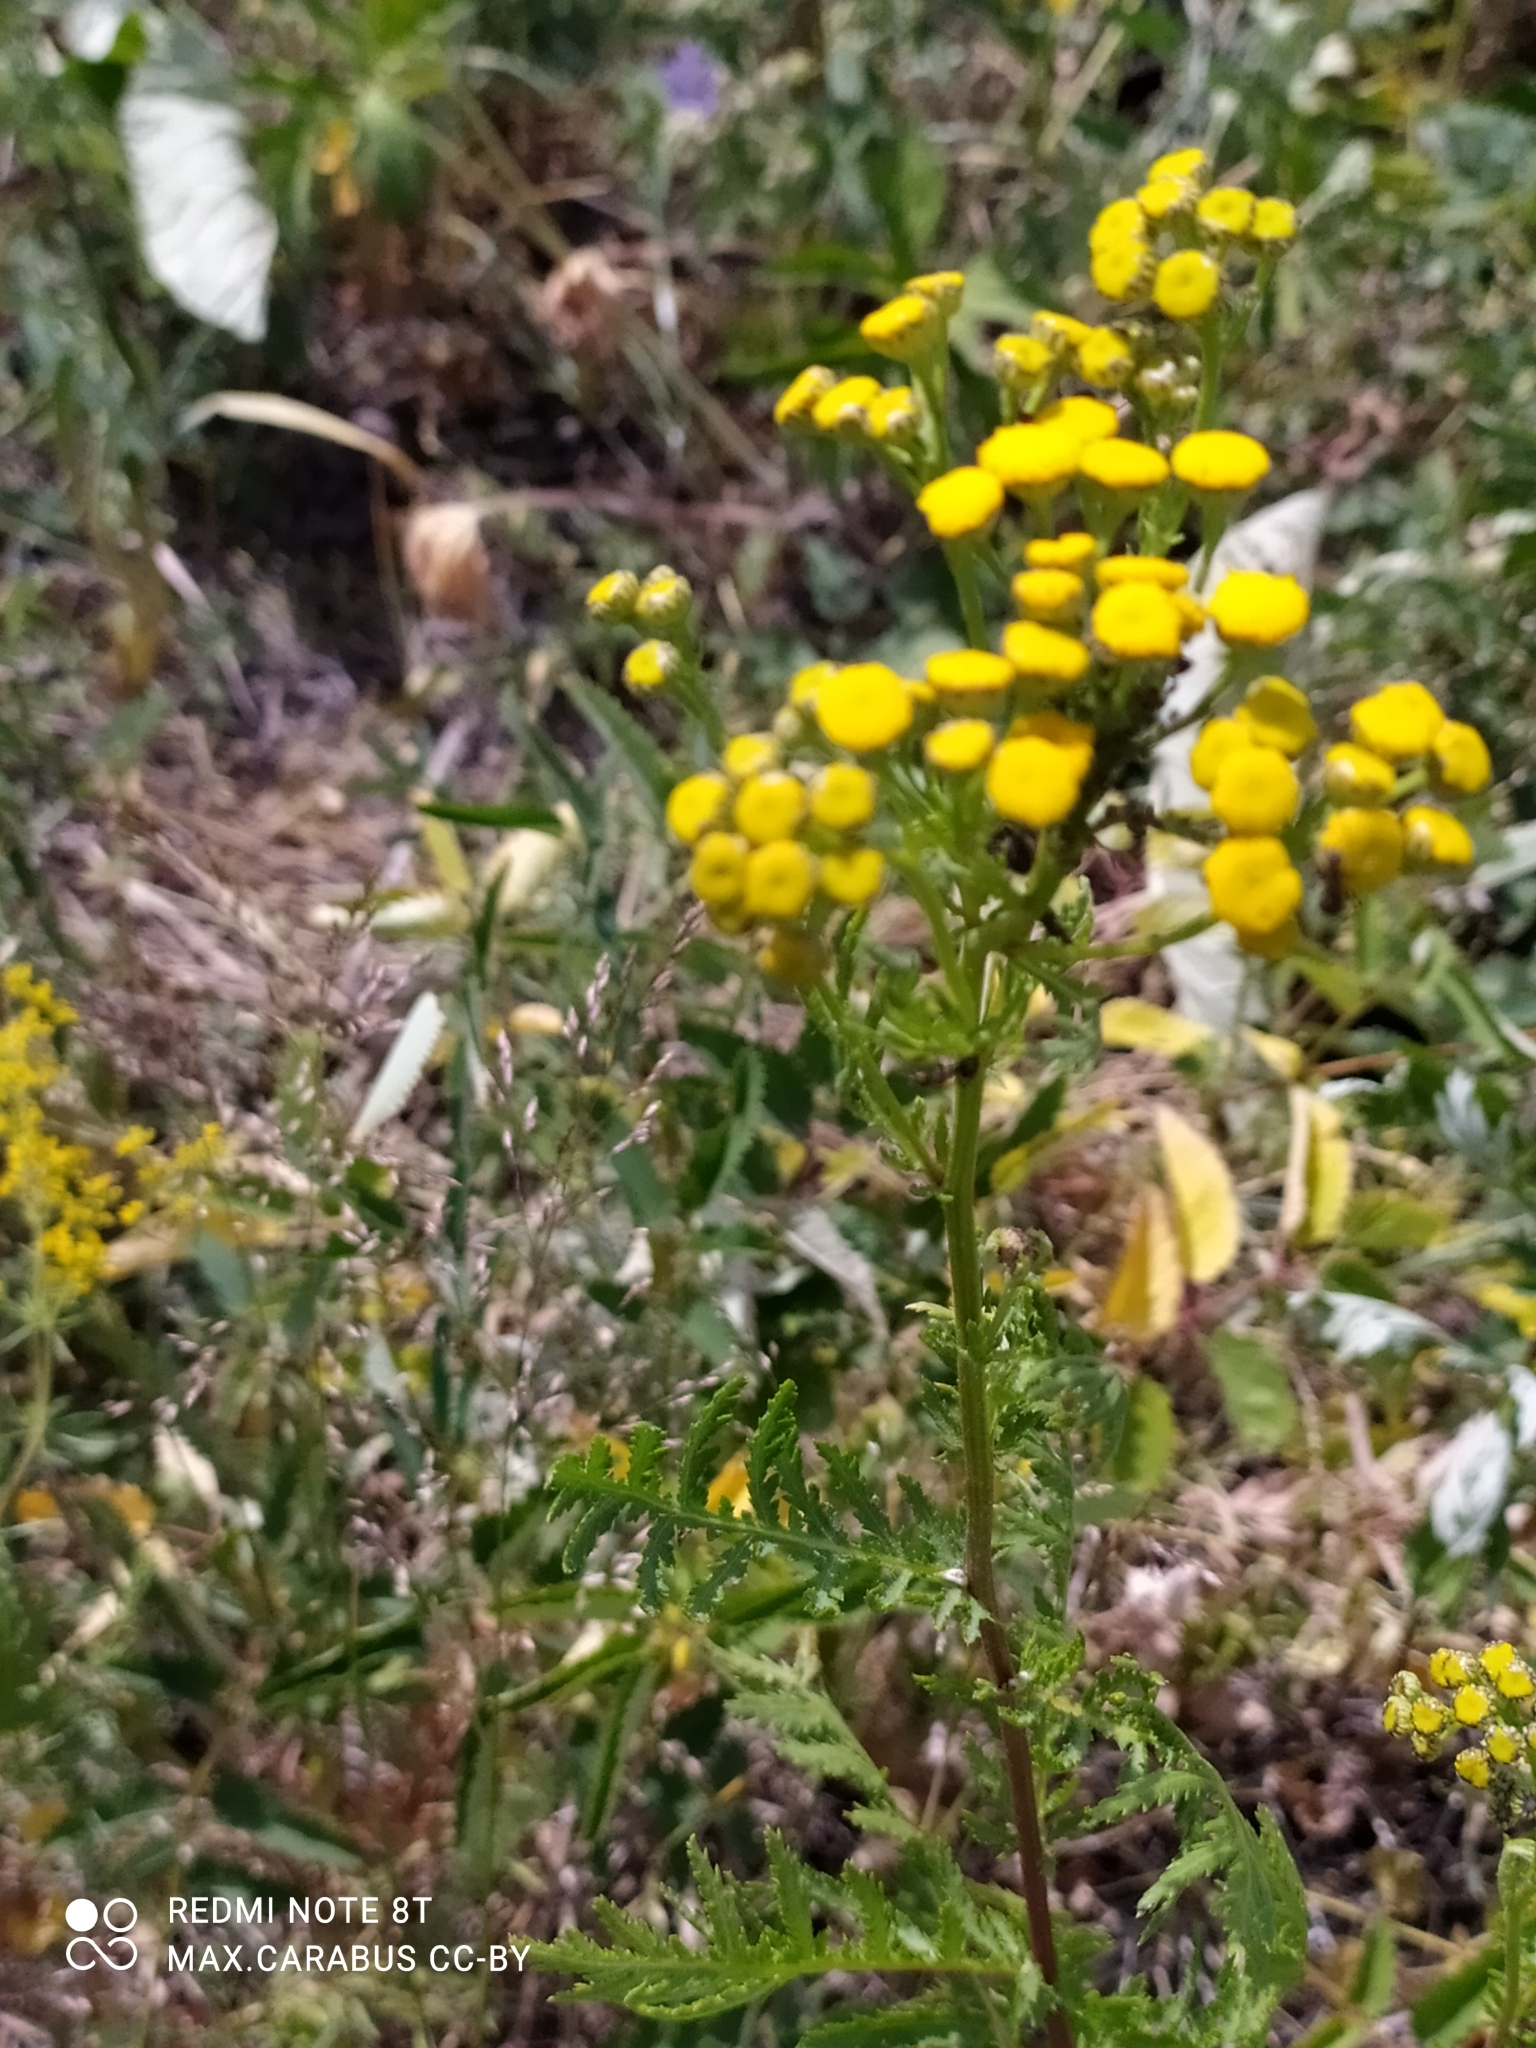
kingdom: Plantae
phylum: Tracheophyta
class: Magnoliopsida
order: Asterales
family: Asteraceae
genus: Tanacetum
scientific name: Tanacetum vulgare
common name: Common tansy
